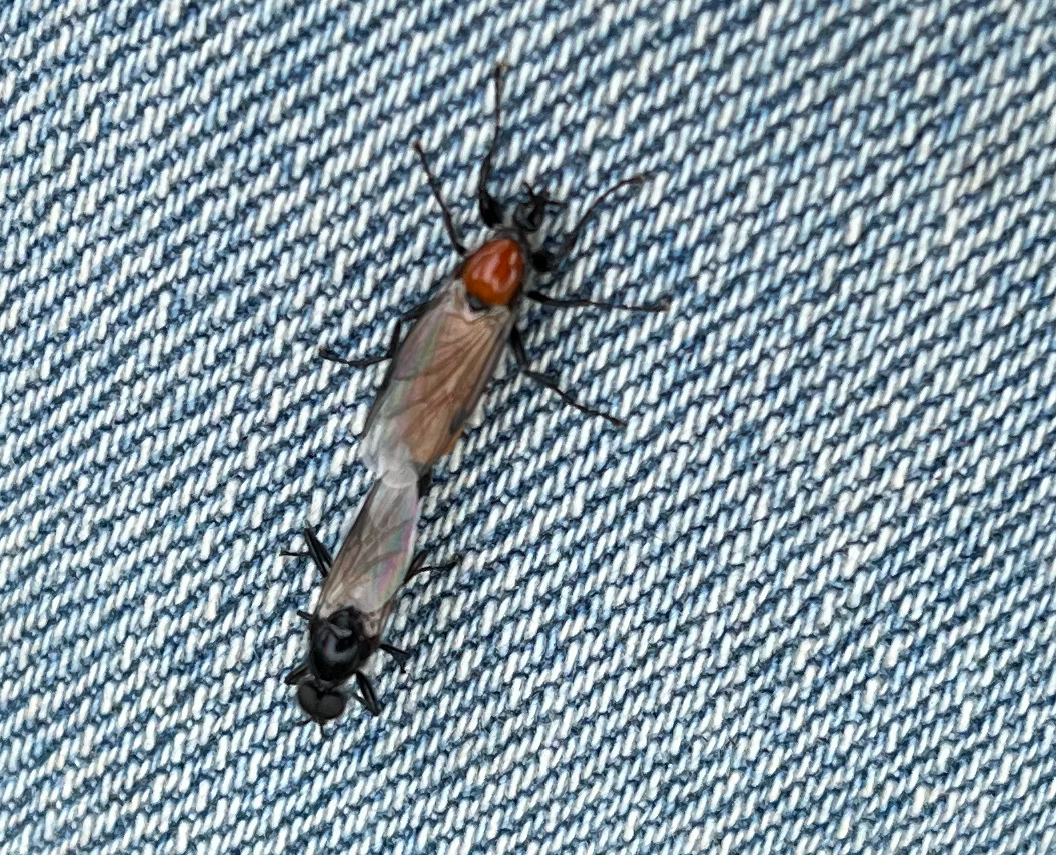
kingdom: Animalia
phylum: Arthropoda
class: Insecta
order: Diptera
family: Bibionidae
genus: Bibio
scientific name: Bibio hortulanus
